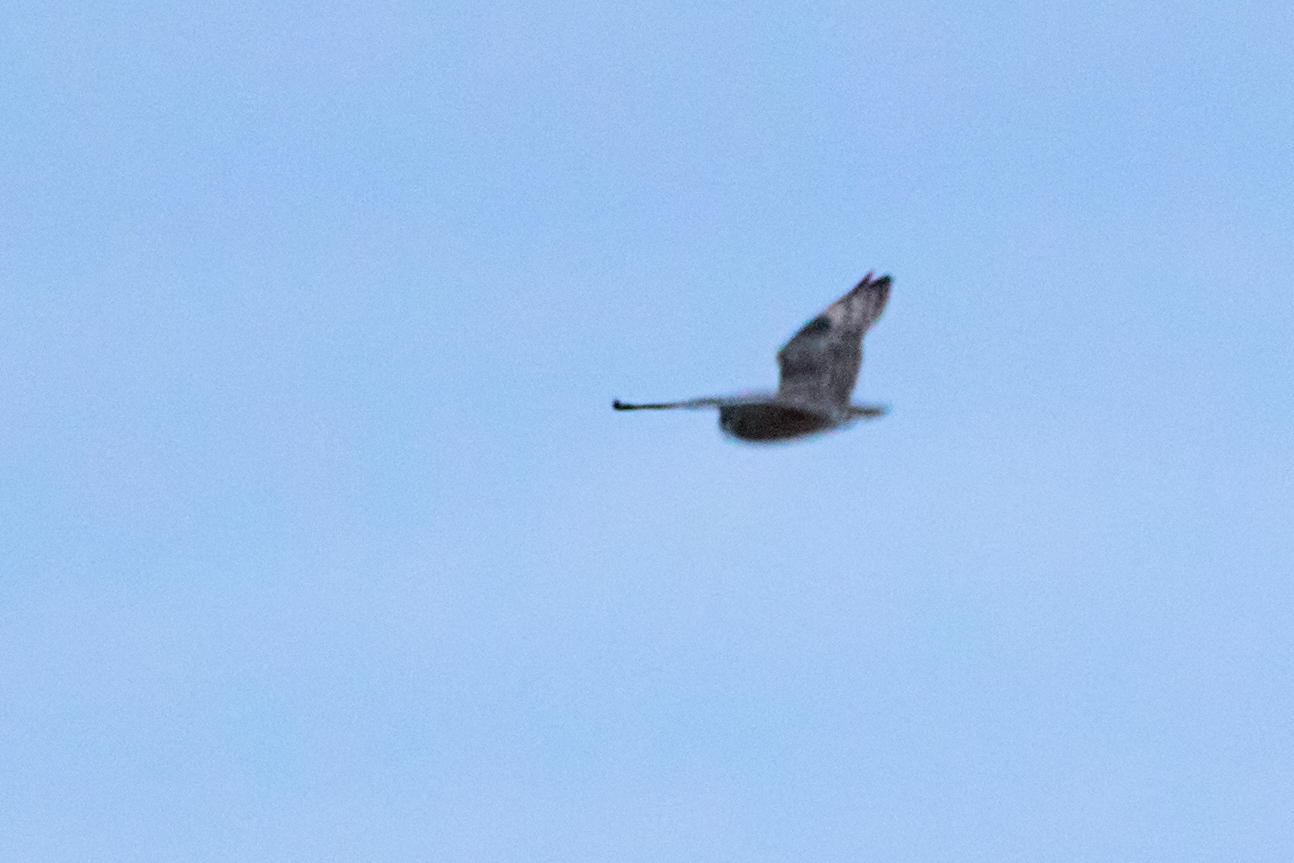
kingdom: Animalia
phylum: Chordata
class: Aves
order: Strigiformes
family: Strigidae
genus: Asio
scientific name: Asio flammeus
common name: Short-eared owl
